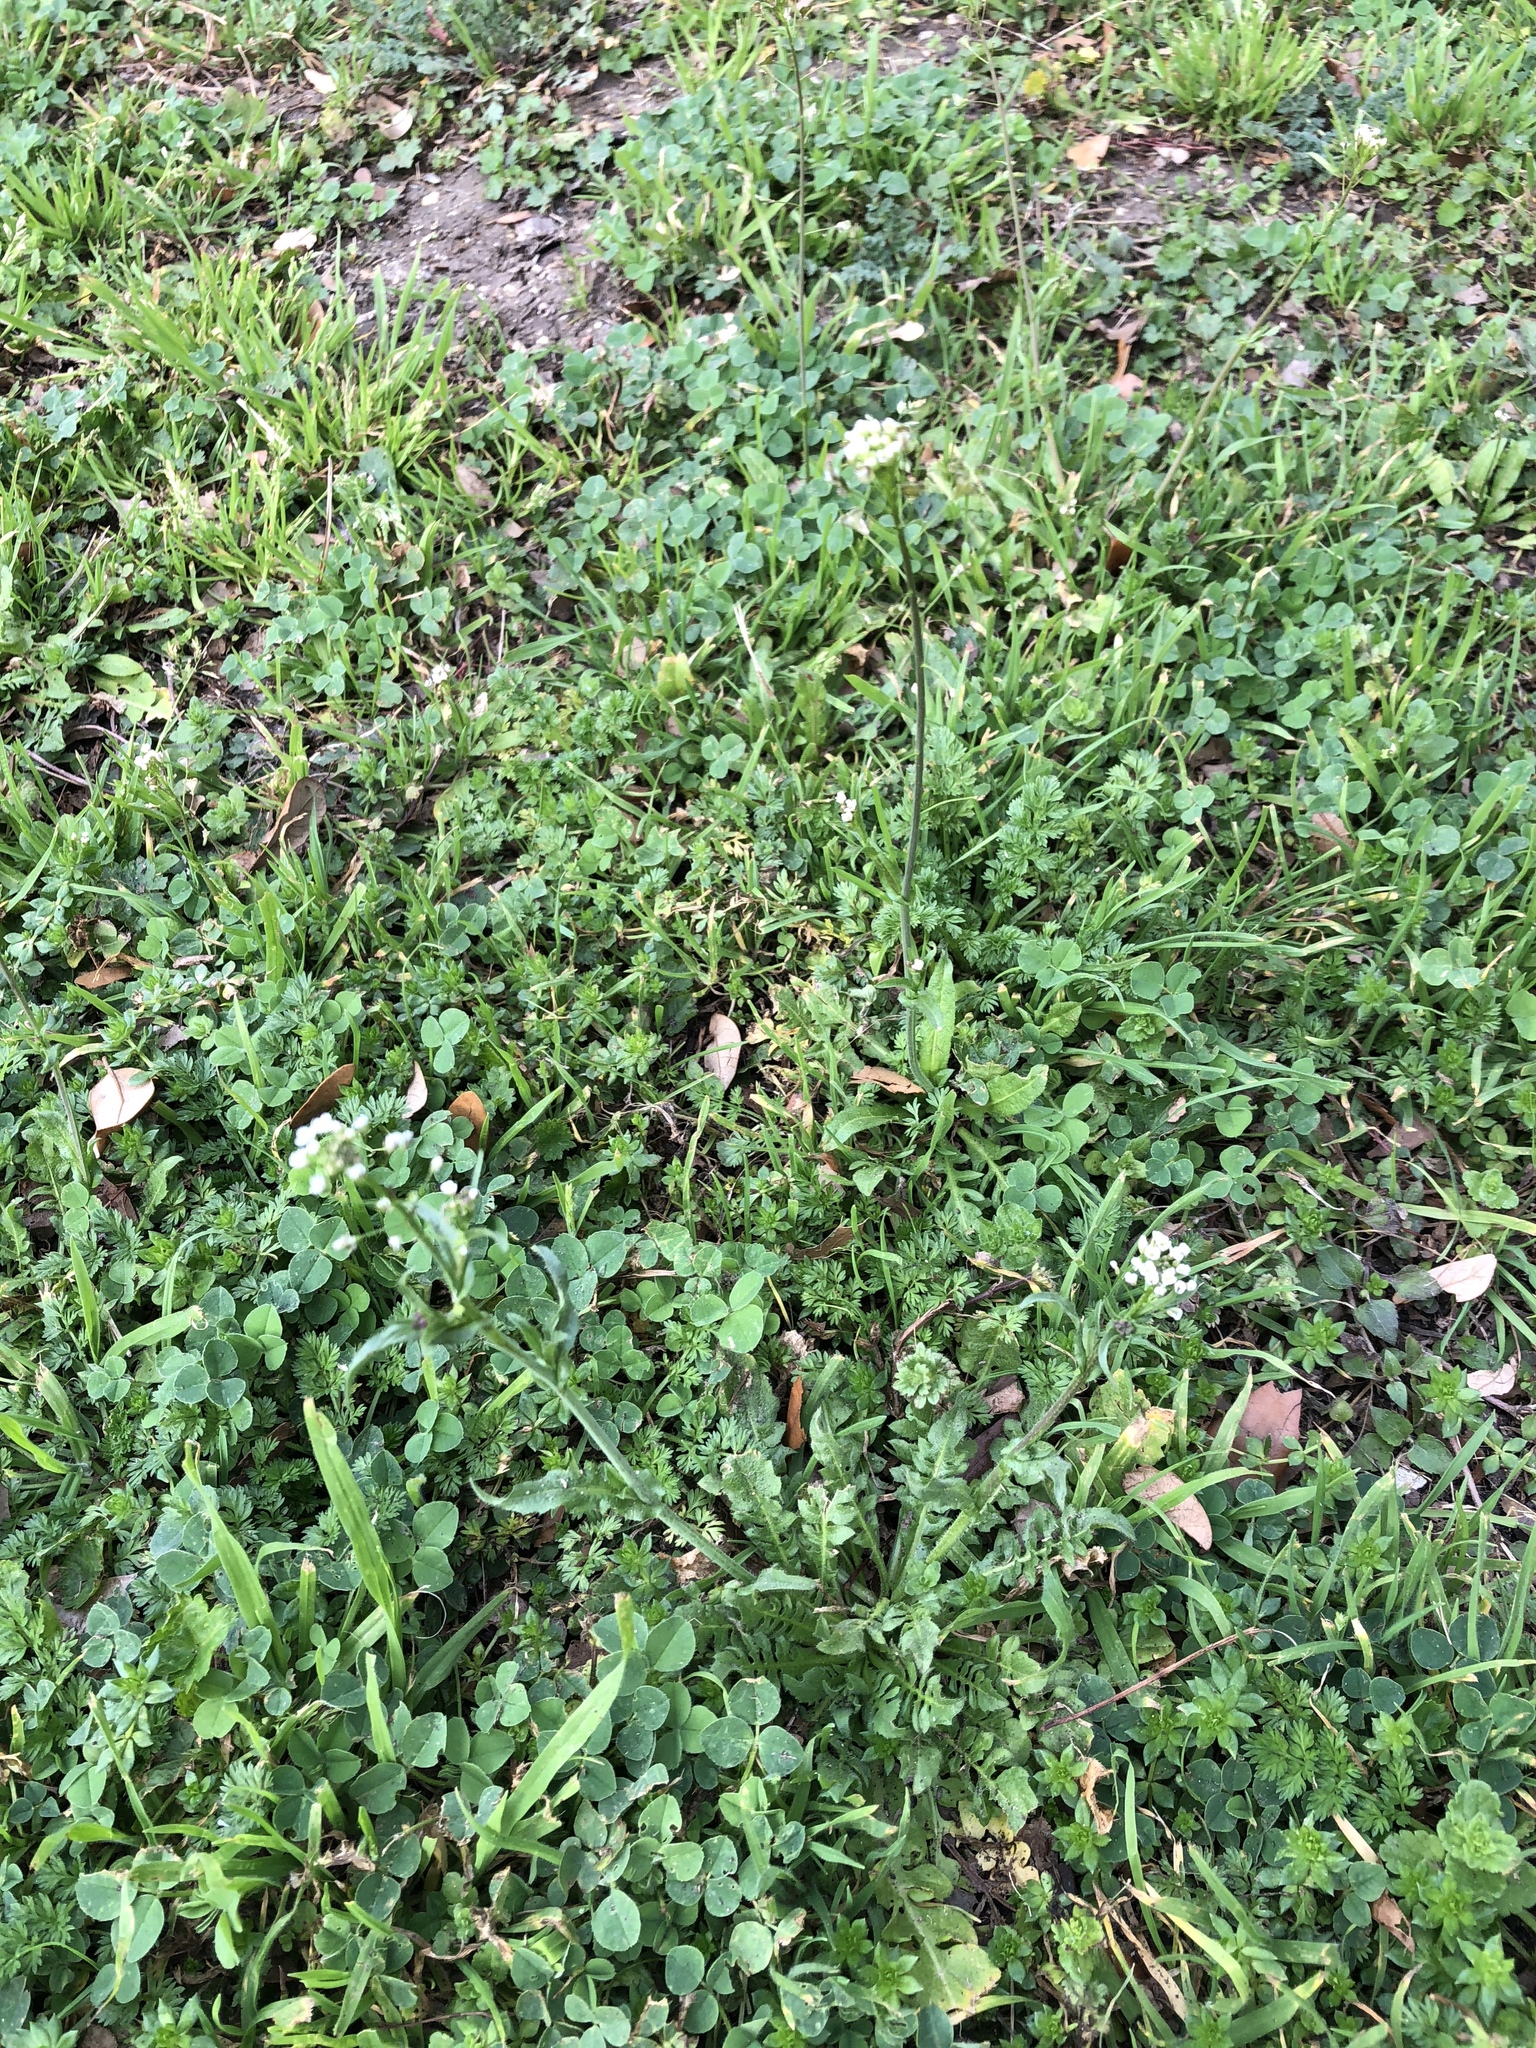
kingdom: Plantae
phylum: Tracheophyta
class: Magnoliopsida
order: Brassicales
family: Brassicaceae
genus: Capsella
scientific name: Capsella bursa-pastoris
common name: Shepherd's purse
